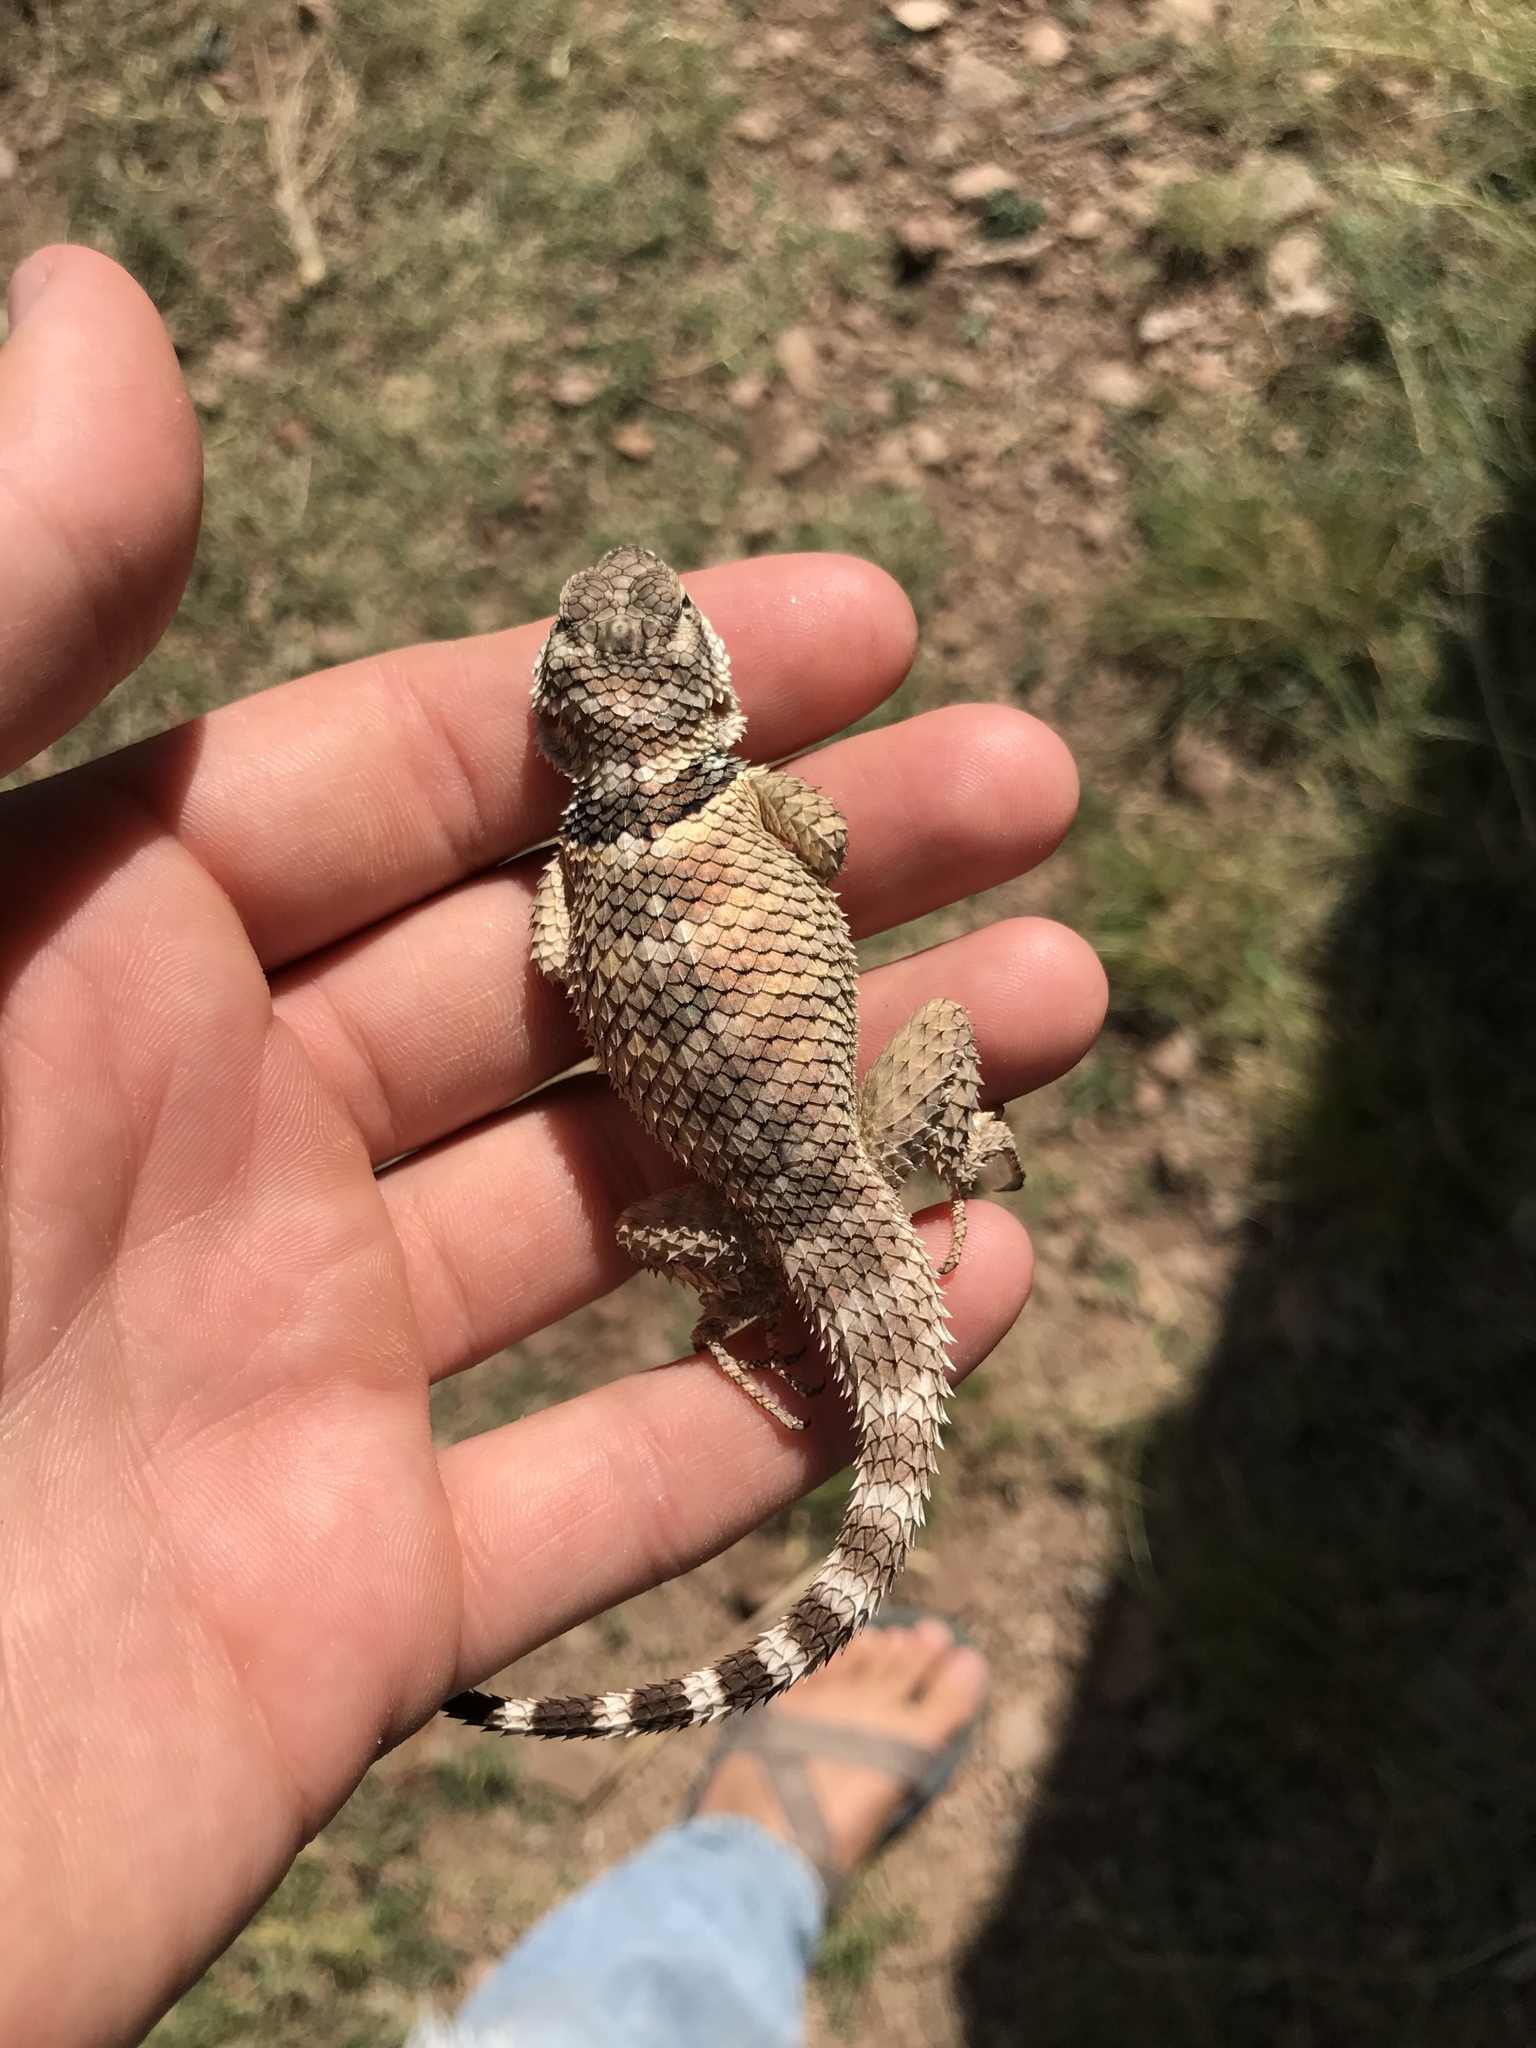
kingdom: Animalia
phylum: Chordata
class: Squamata
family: Phrynosomatidae
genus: Sceloporus
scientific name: Sceloporus poinsettii
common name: Crevice spiny lizard
